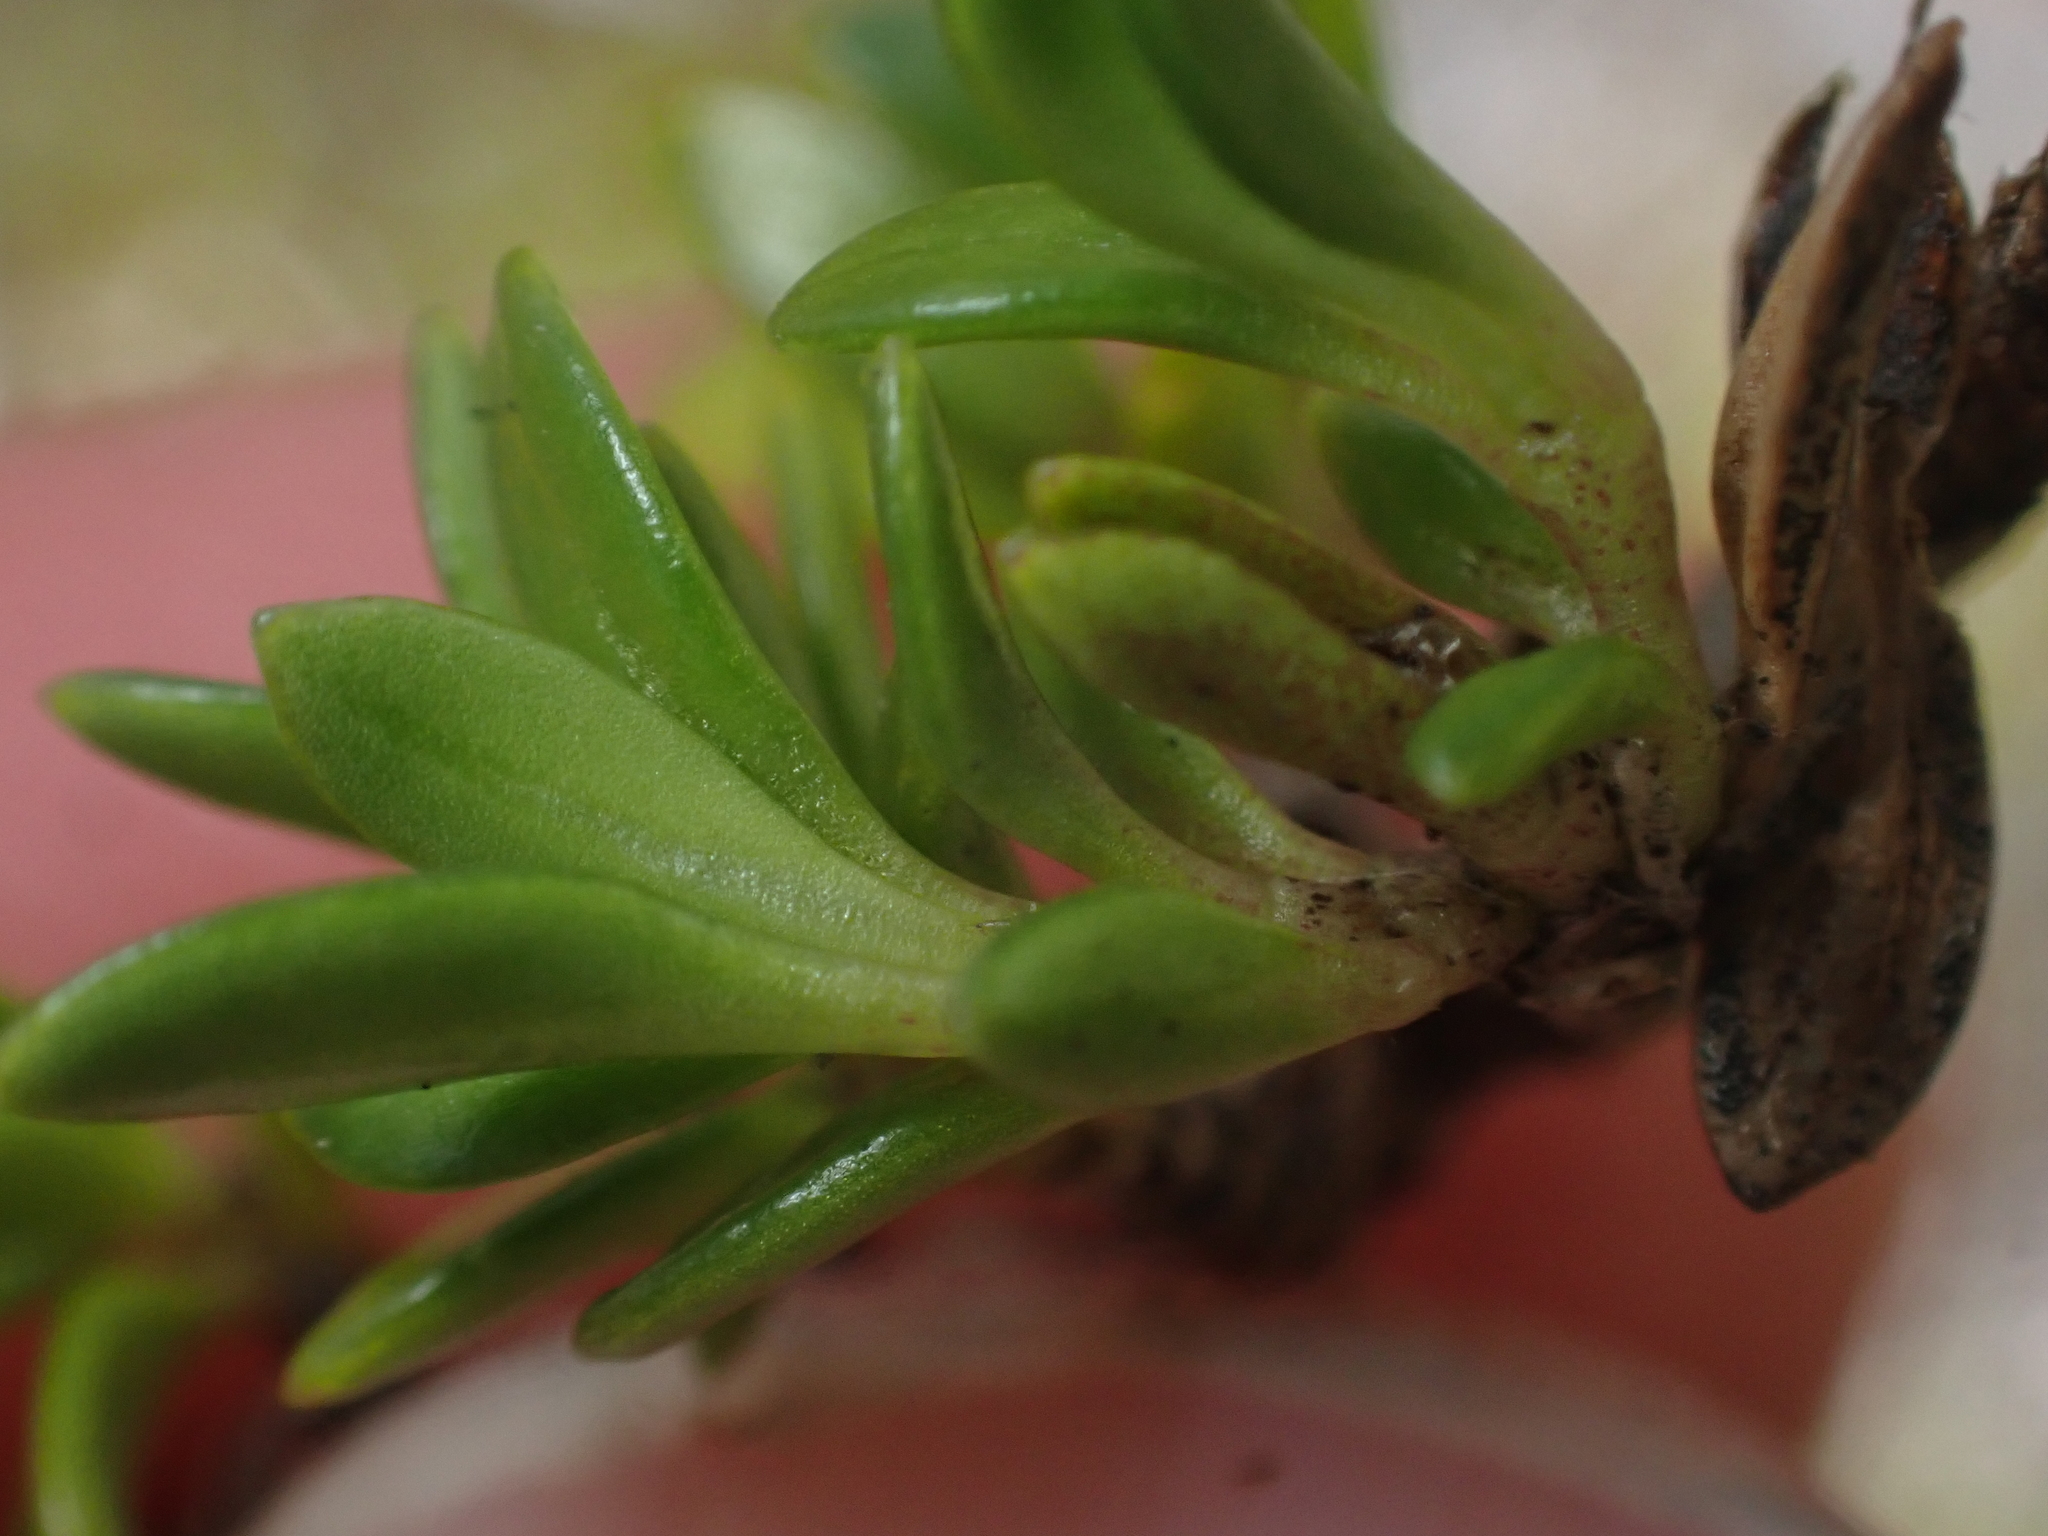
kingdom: Plantae
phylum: Tracheophyta
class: Magnoliopsida
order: Gentianales
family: Rubiaceae
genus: Coprosma
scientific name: Coprosma perpusilla
